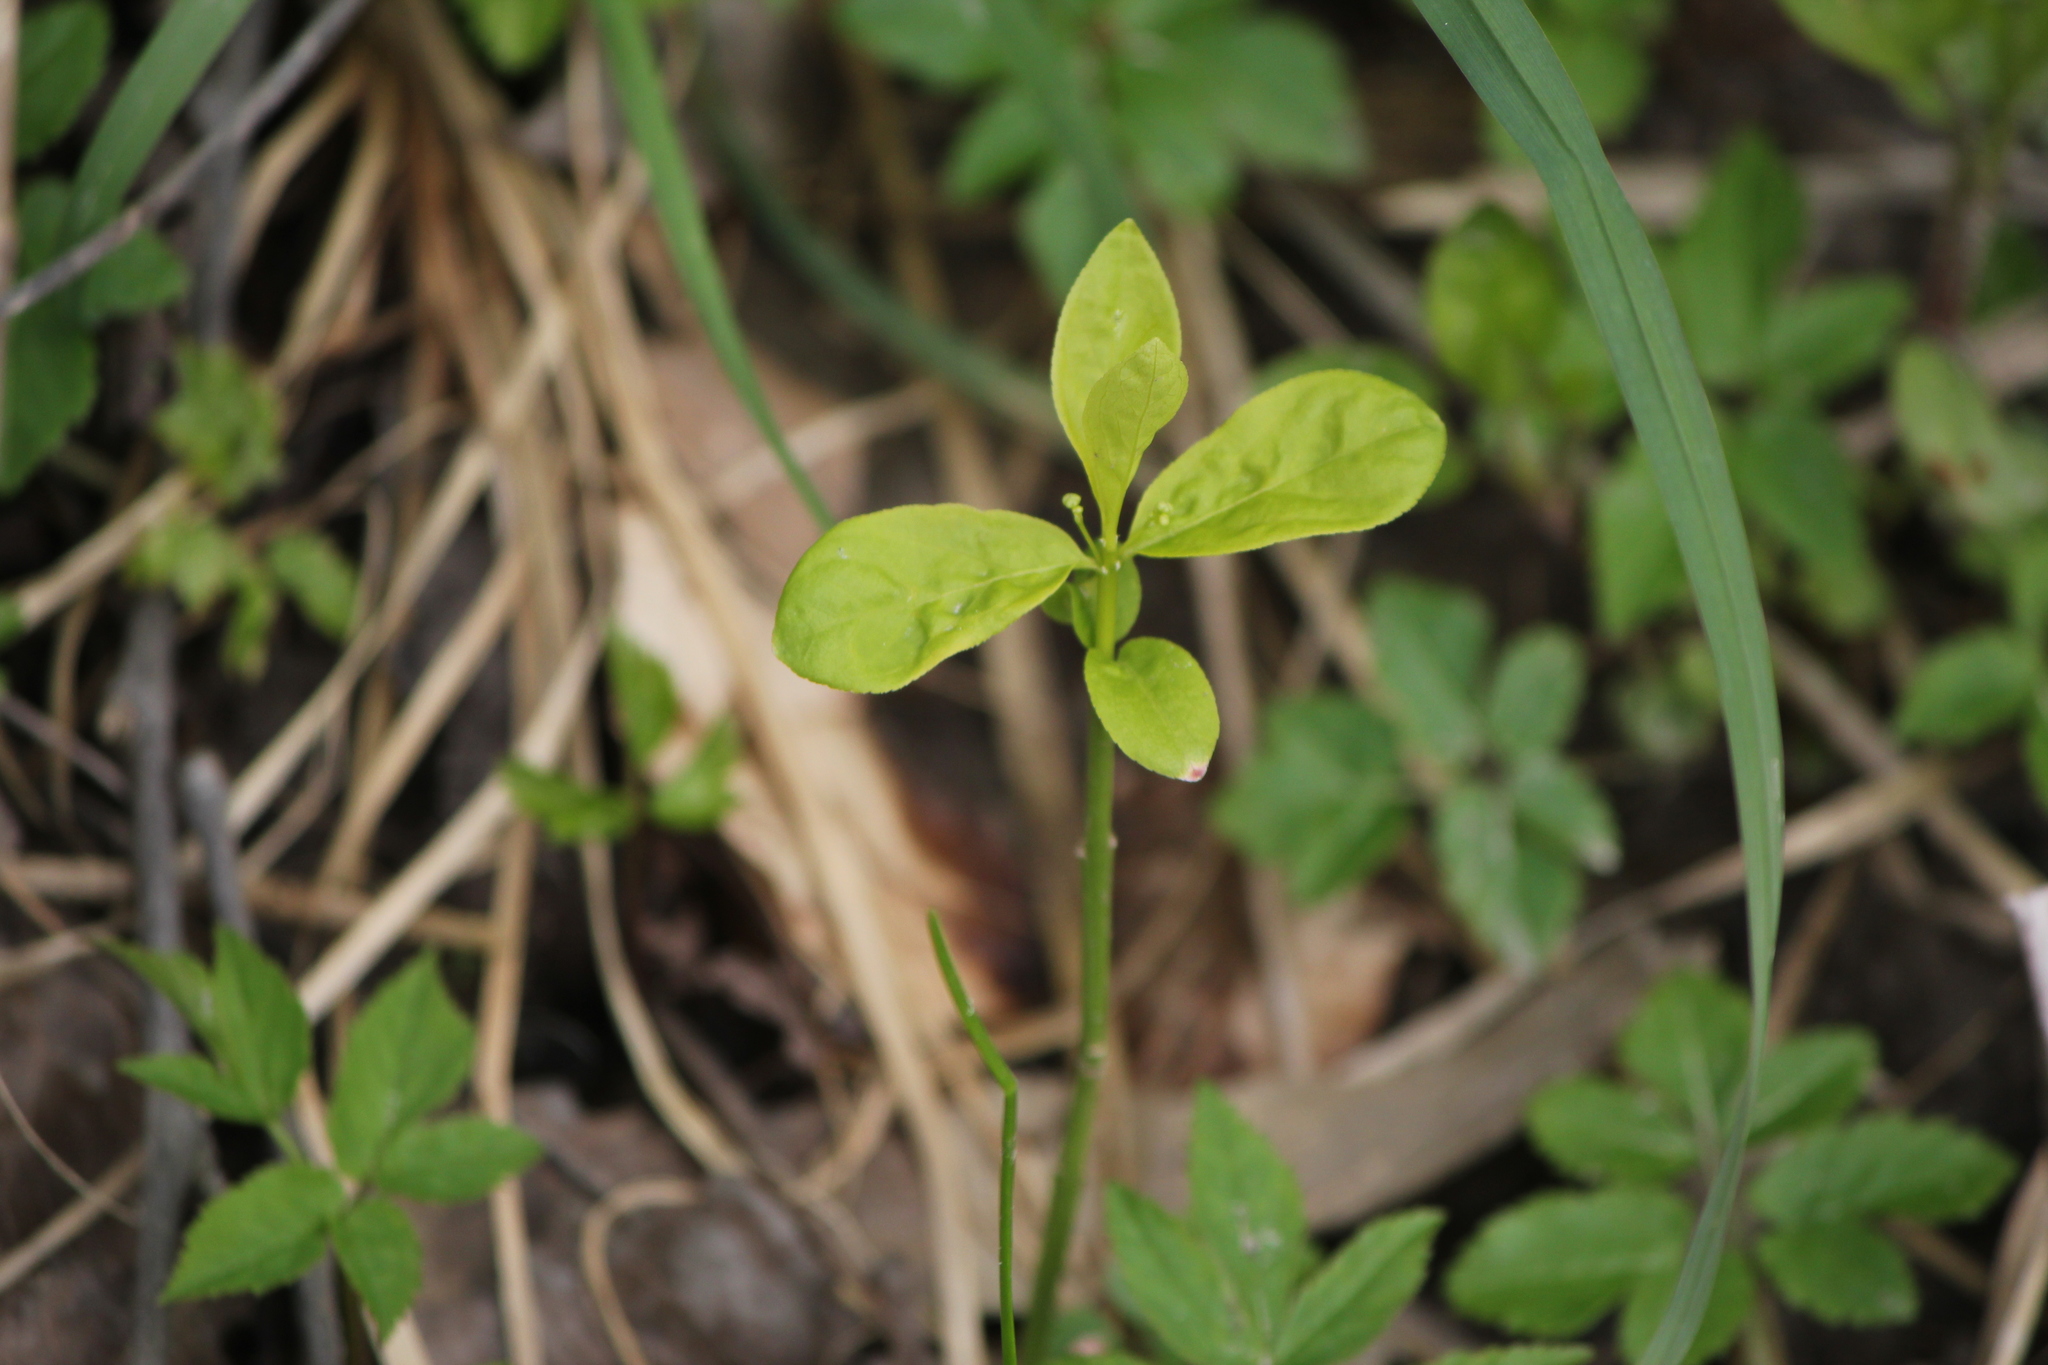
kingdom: Plantae
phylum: Tracheophyta
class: Magnoliopsida
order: Celastrales
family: Celastraceae
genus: Euonymus
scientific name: Euonymus obovatus
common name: Running strawberry-bush
